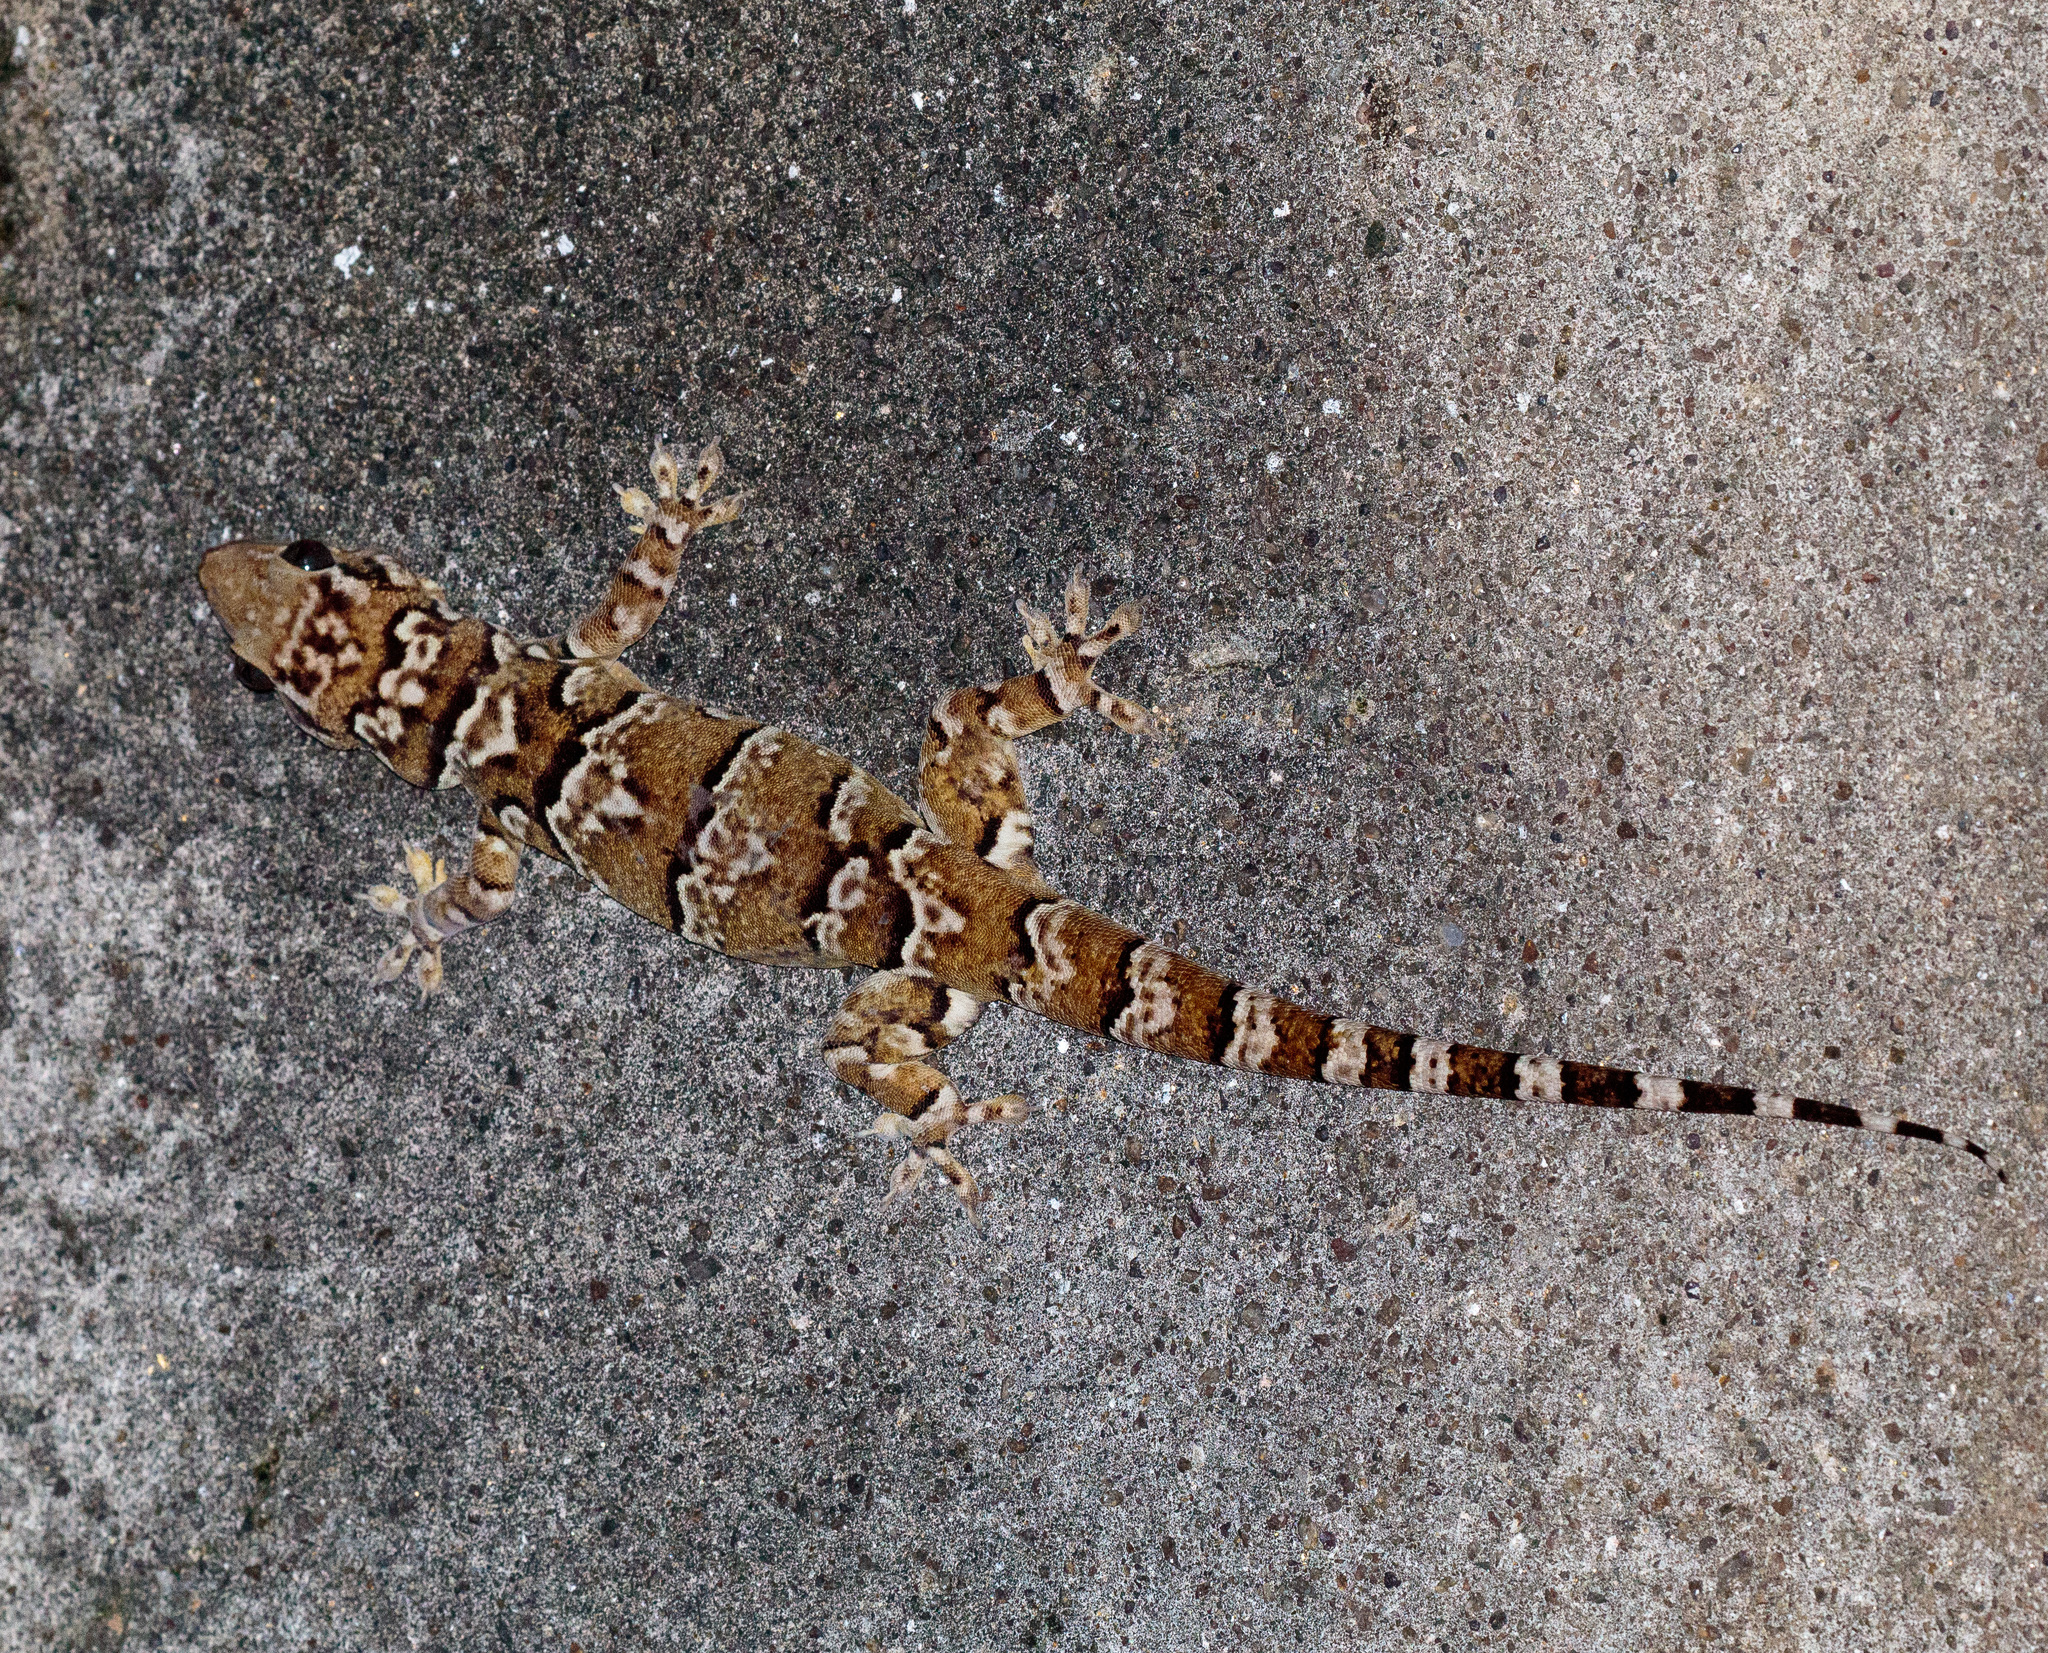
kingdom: Animalia
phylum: Chordata
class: Squamata
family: Phyllodactylidae
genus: Phyllopezus
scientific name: Phyllopezus periosus
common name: Peraiba gecko
